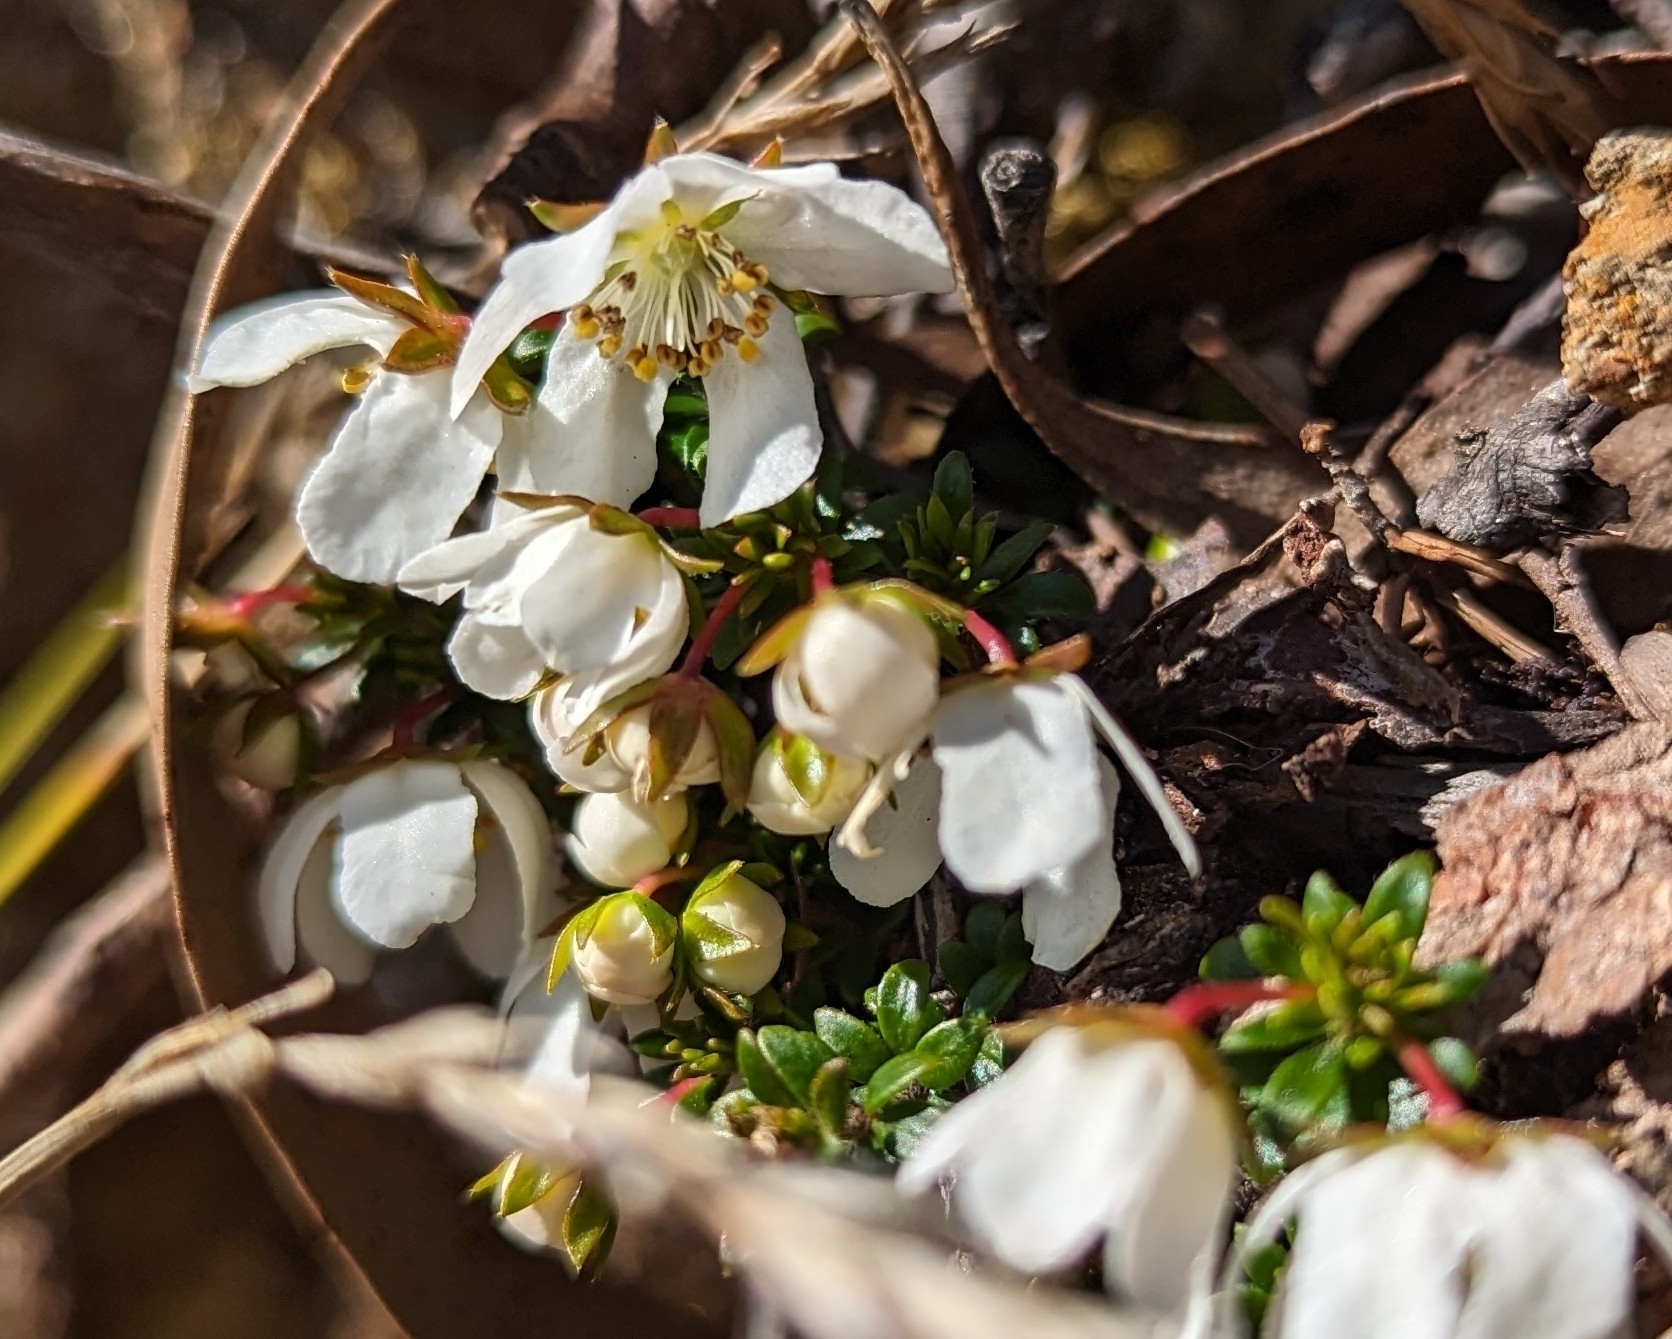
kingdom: Plantae
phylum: Tracheophyta
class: Magnoliopsida
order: Oxalidales
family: Cunoniaceae
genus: Bauera
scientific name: Bauera rubioides
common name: River-rose
